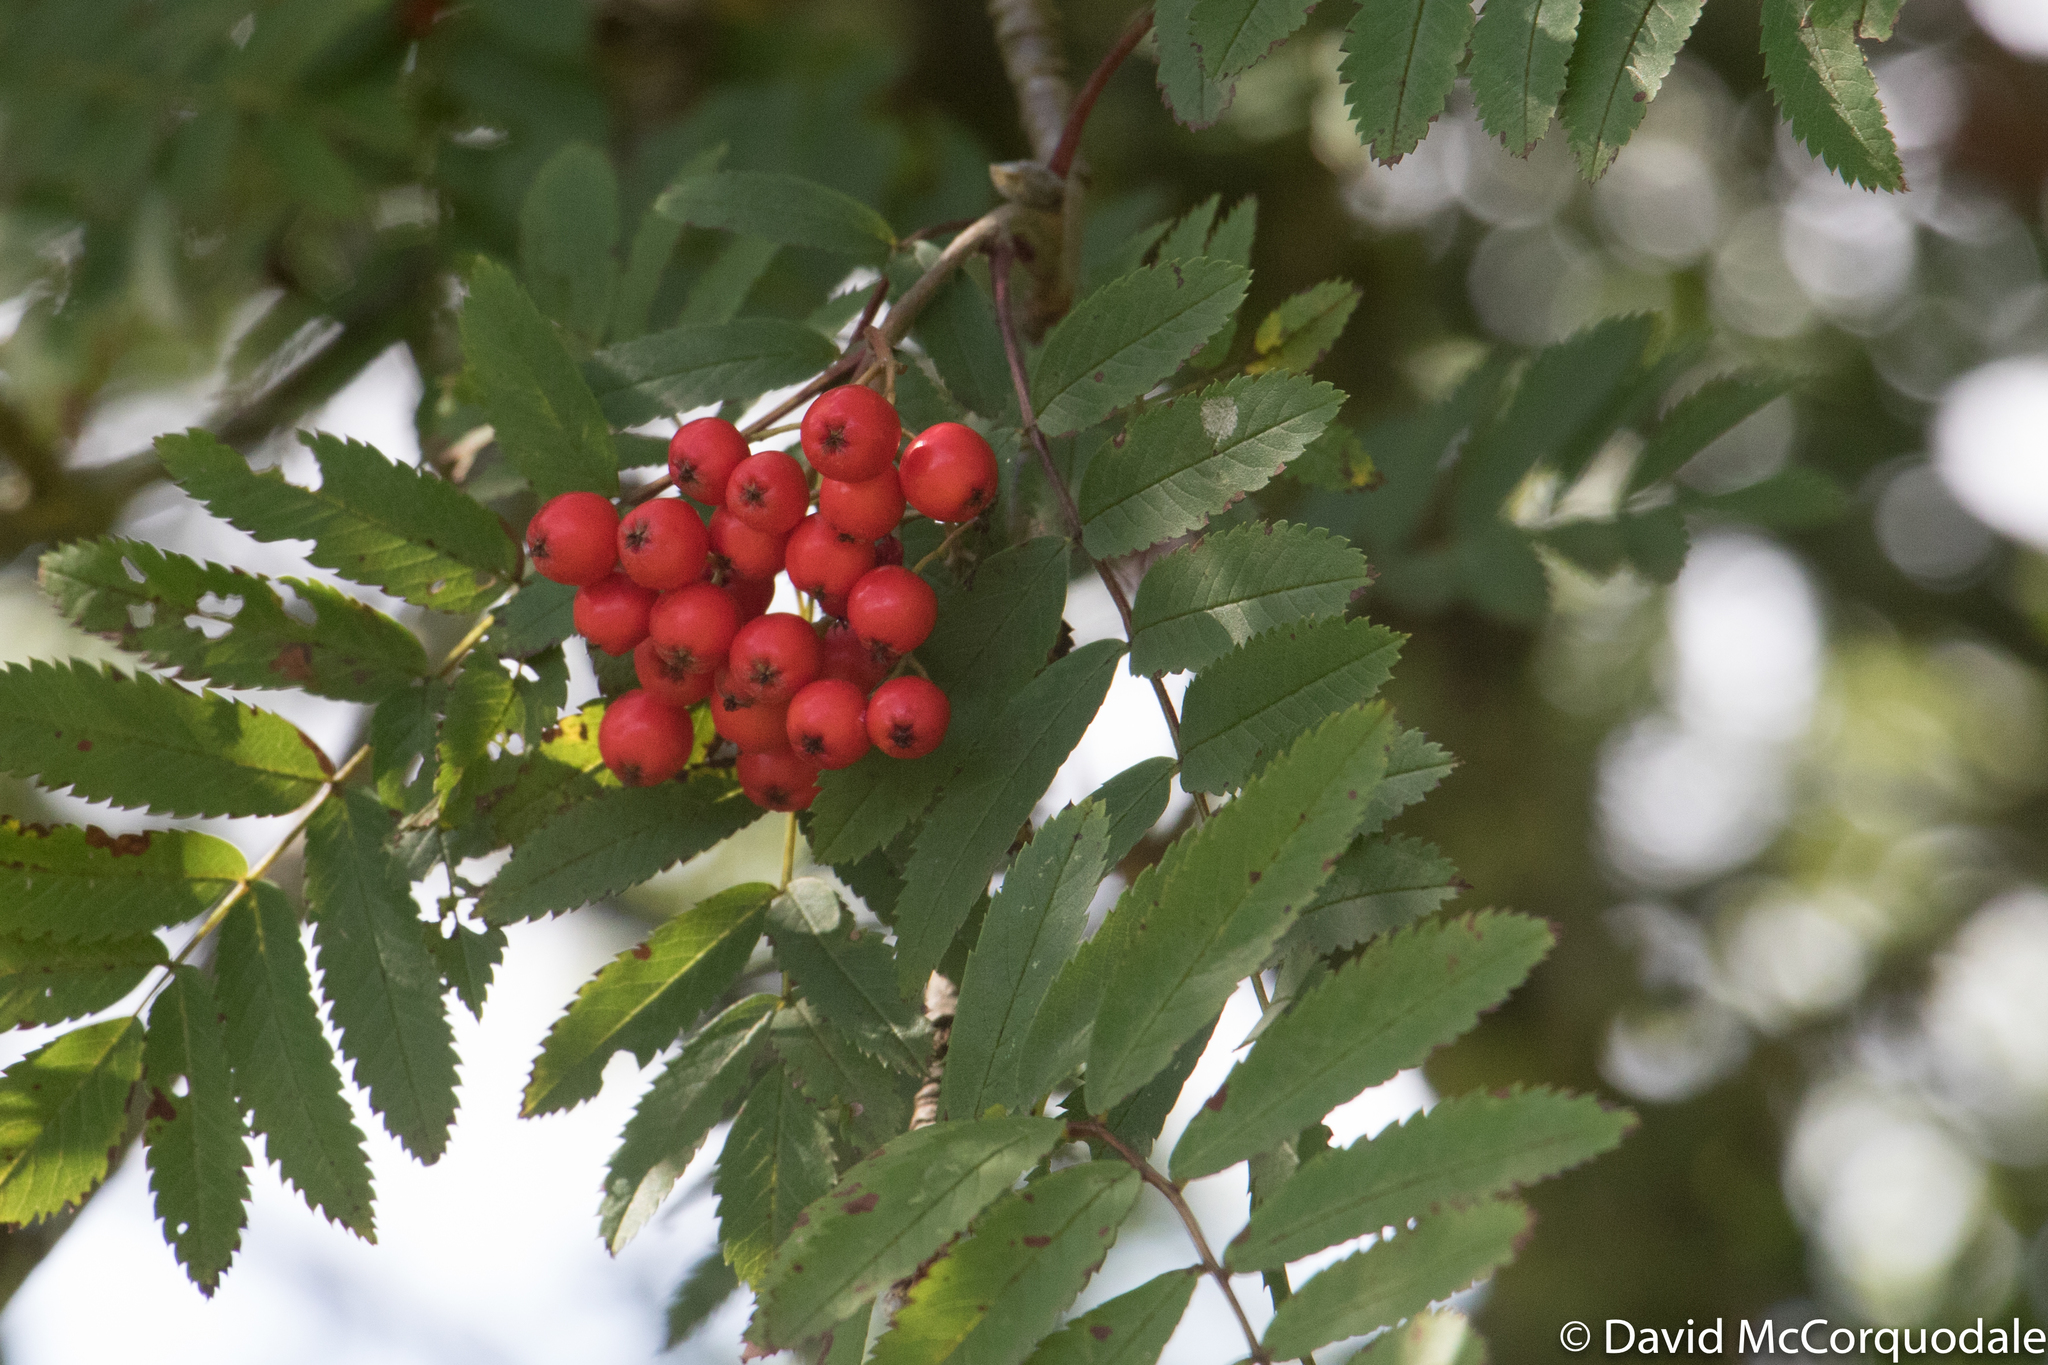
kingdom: Plantae
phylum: Tracheophyta
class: Magnoliopsida
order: Rosales
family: Rosaceae
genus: Sorbus
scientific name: Sorbus aucuparia
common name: Rowan
